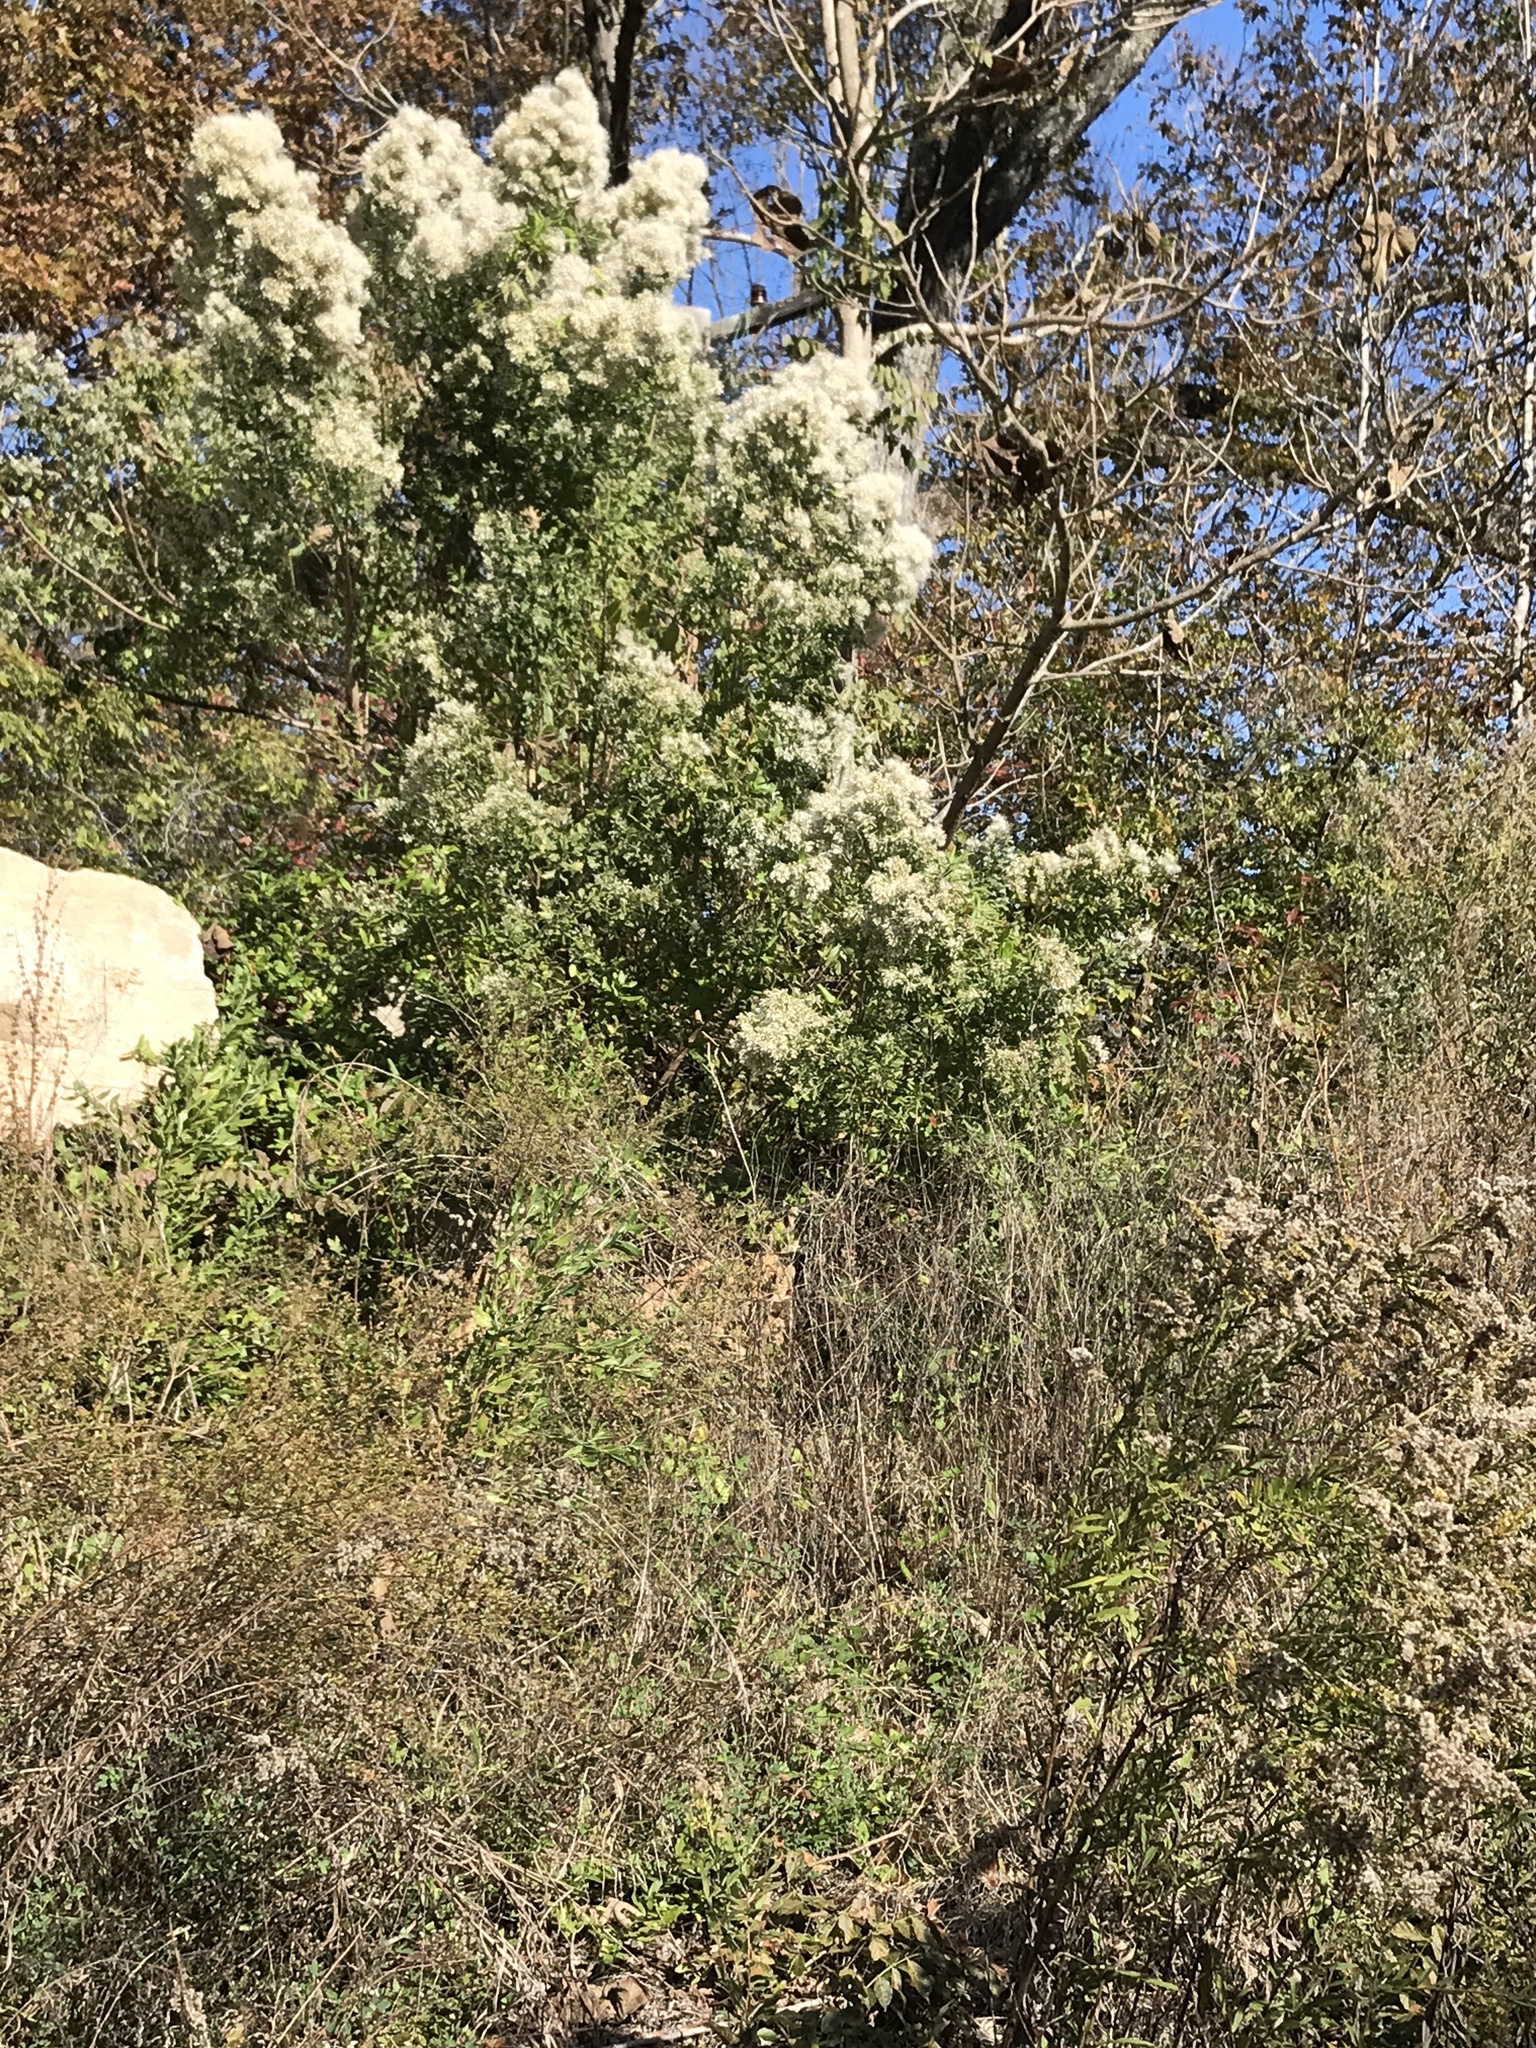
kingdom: Plantae
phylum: Tracheophyta
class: Magnoliopsida
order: Asterales
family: Asteraceae
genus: Baccharis
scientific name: Baccharis halimifolia
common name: Eastern baccharis
